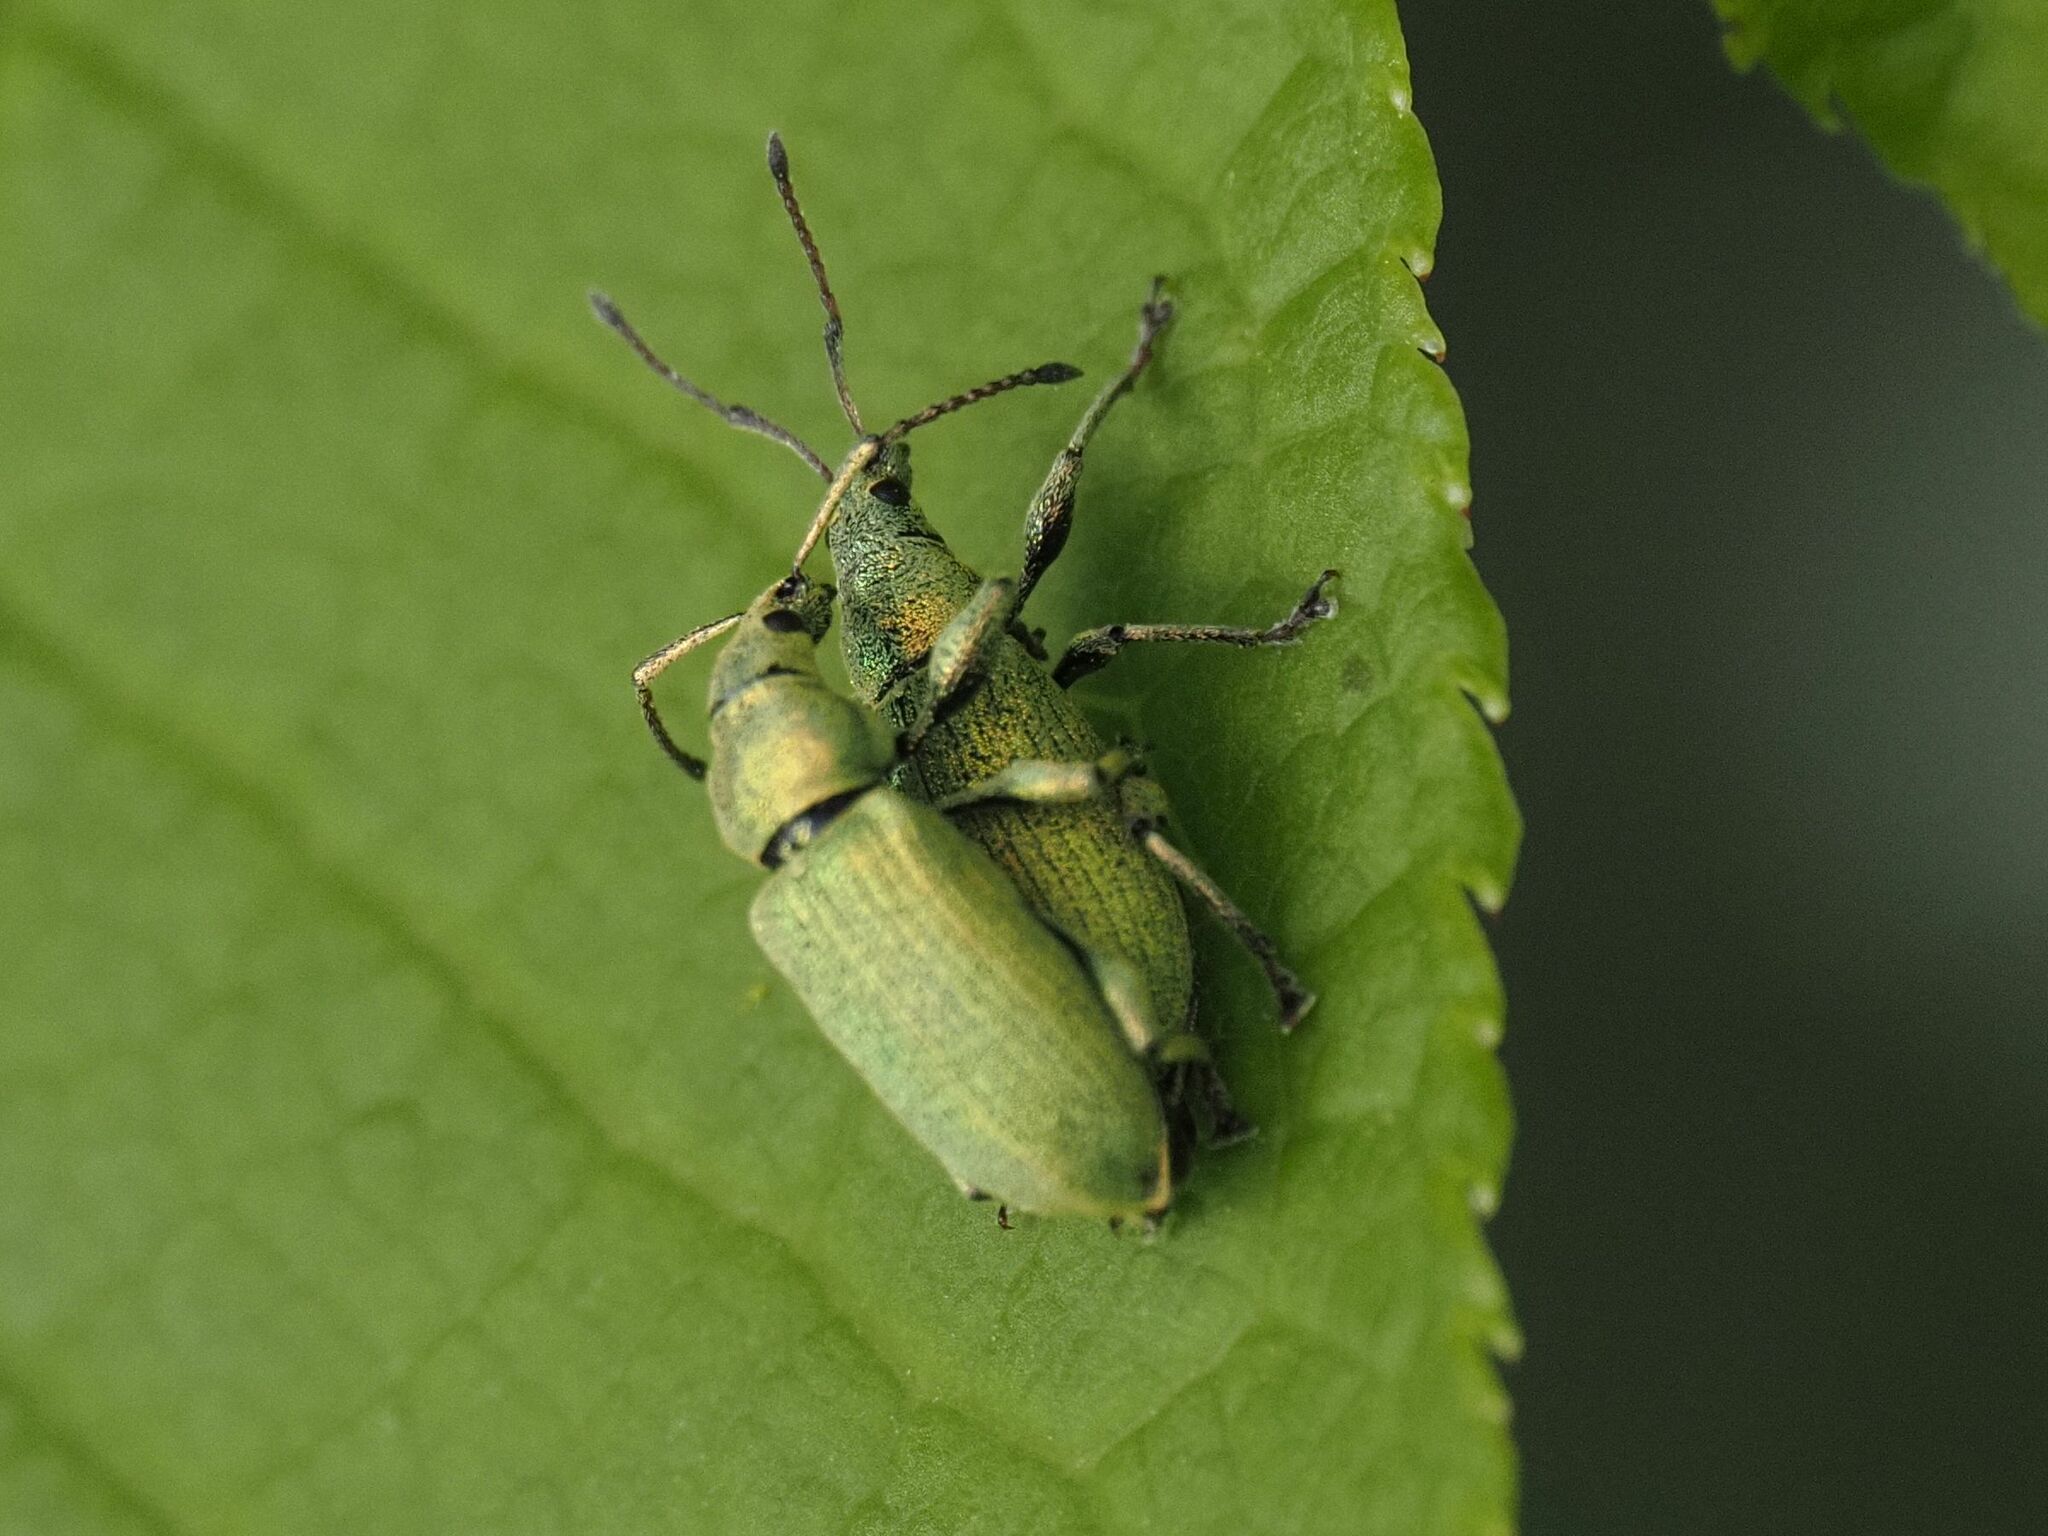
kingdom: Animalia
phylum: Arthropoda
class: Insecta
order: Coleoptera
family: Curculionidae
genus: Phyllobius
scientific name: Phyllobius maculicornis
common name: Green leaf weevil
